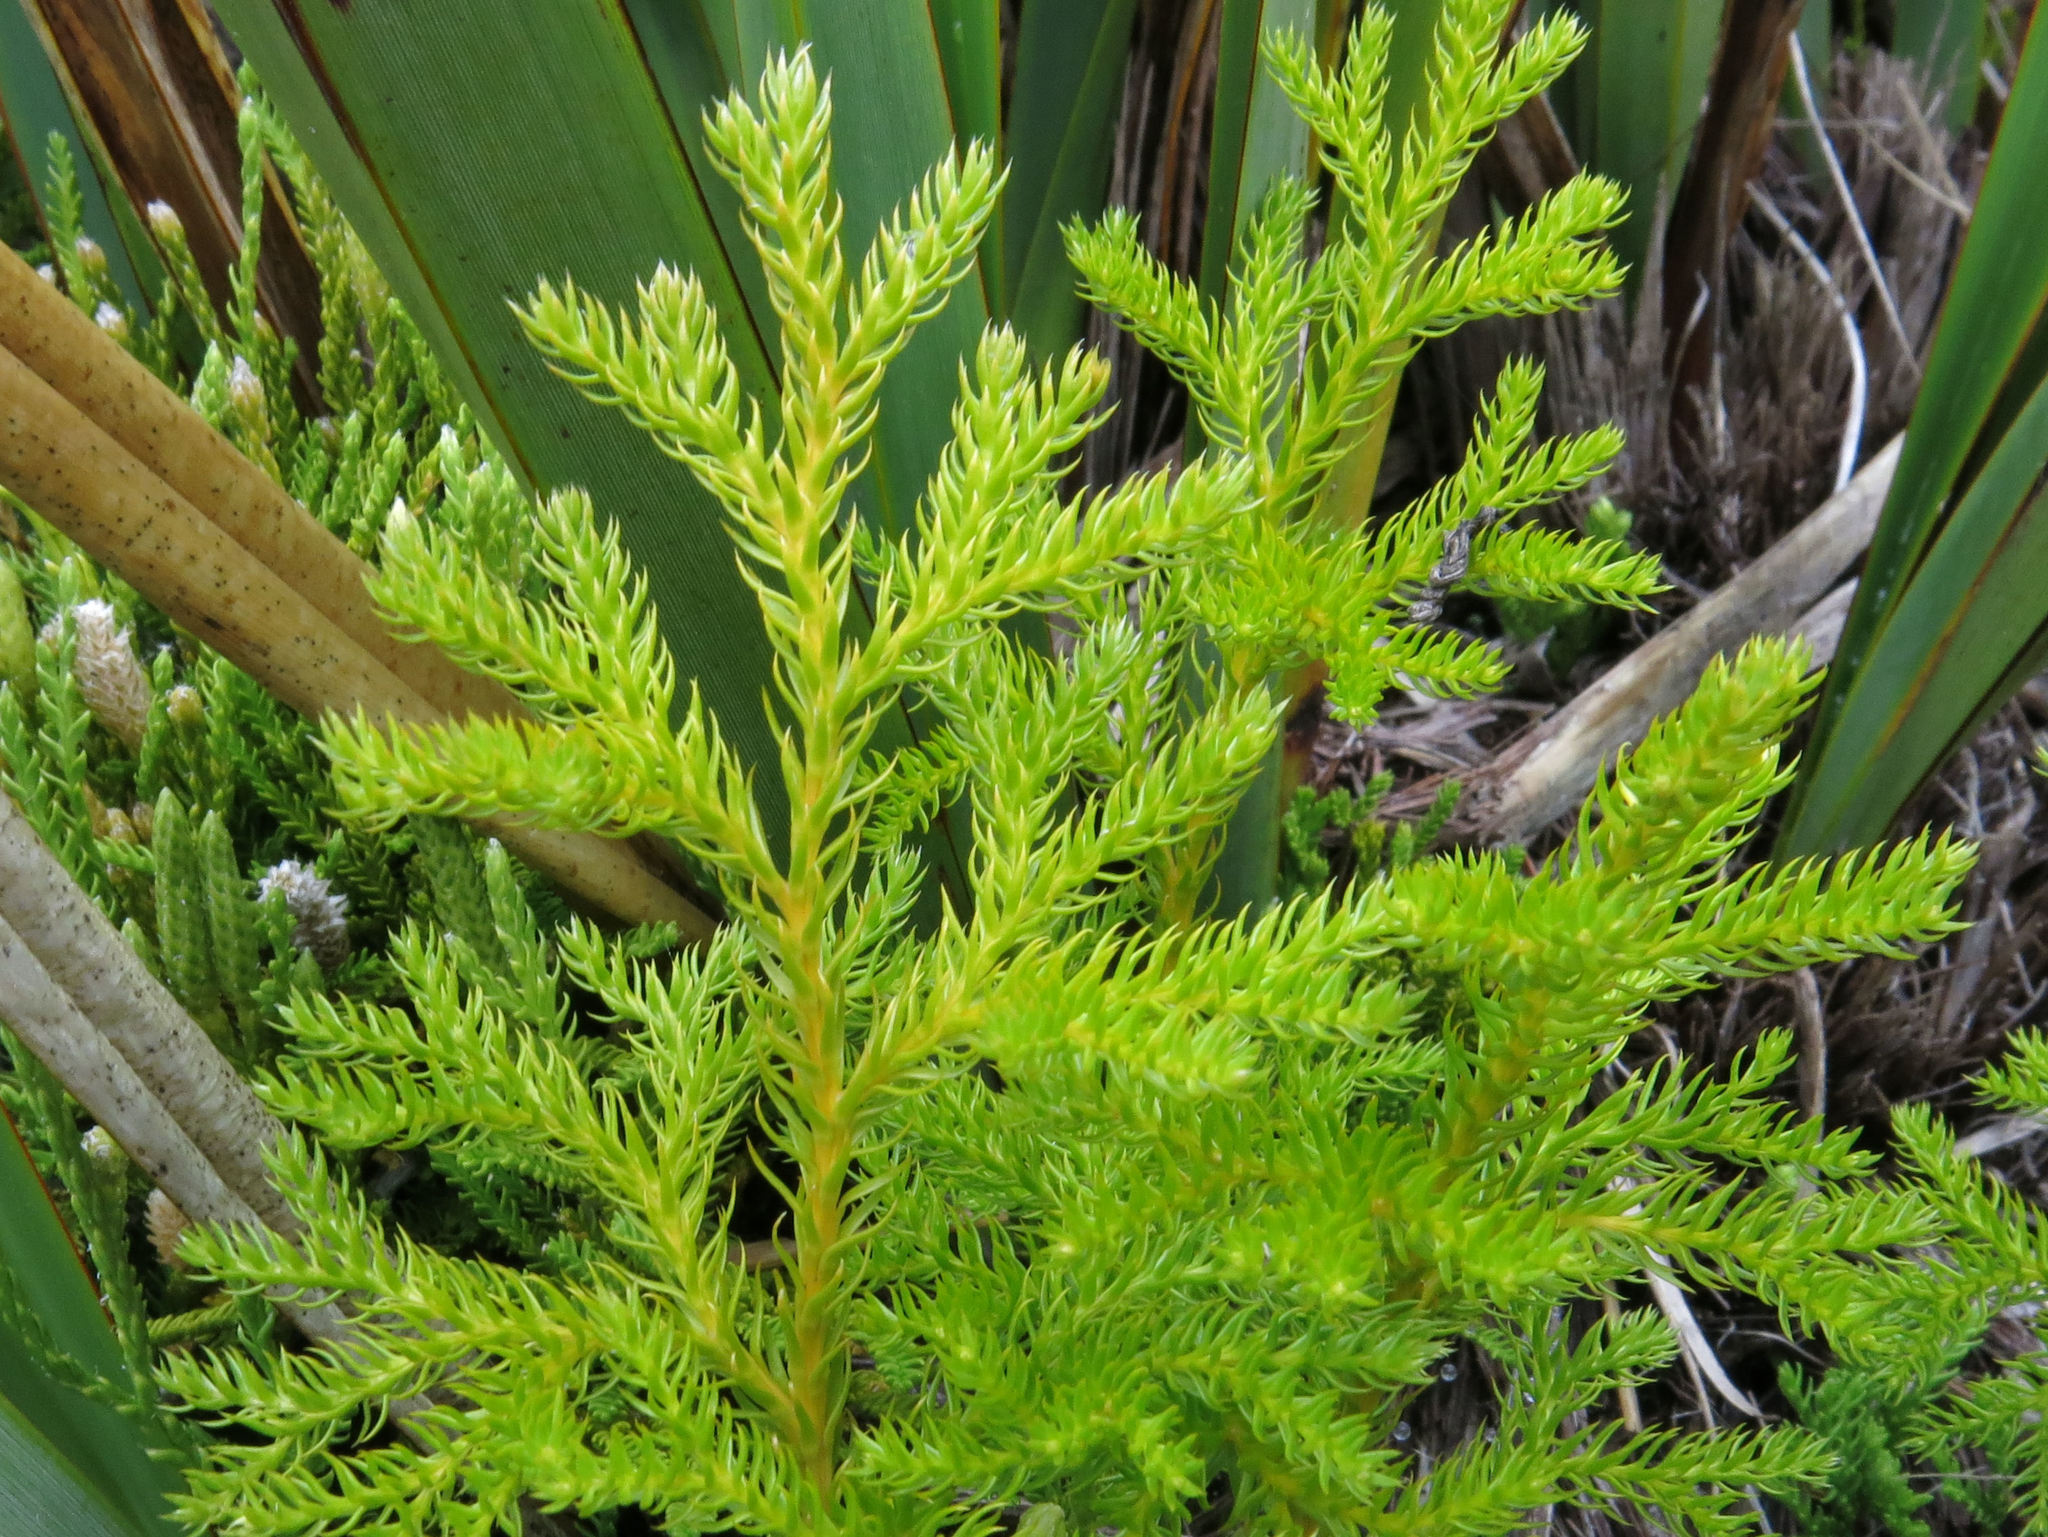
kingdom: Plantae
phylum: Tracheophyta
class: Lycopodiopsida
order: Lycopodiales
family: Lycopodiaceae
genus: Austrolycopodium
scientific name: Austrolycopodium fastigiatum
